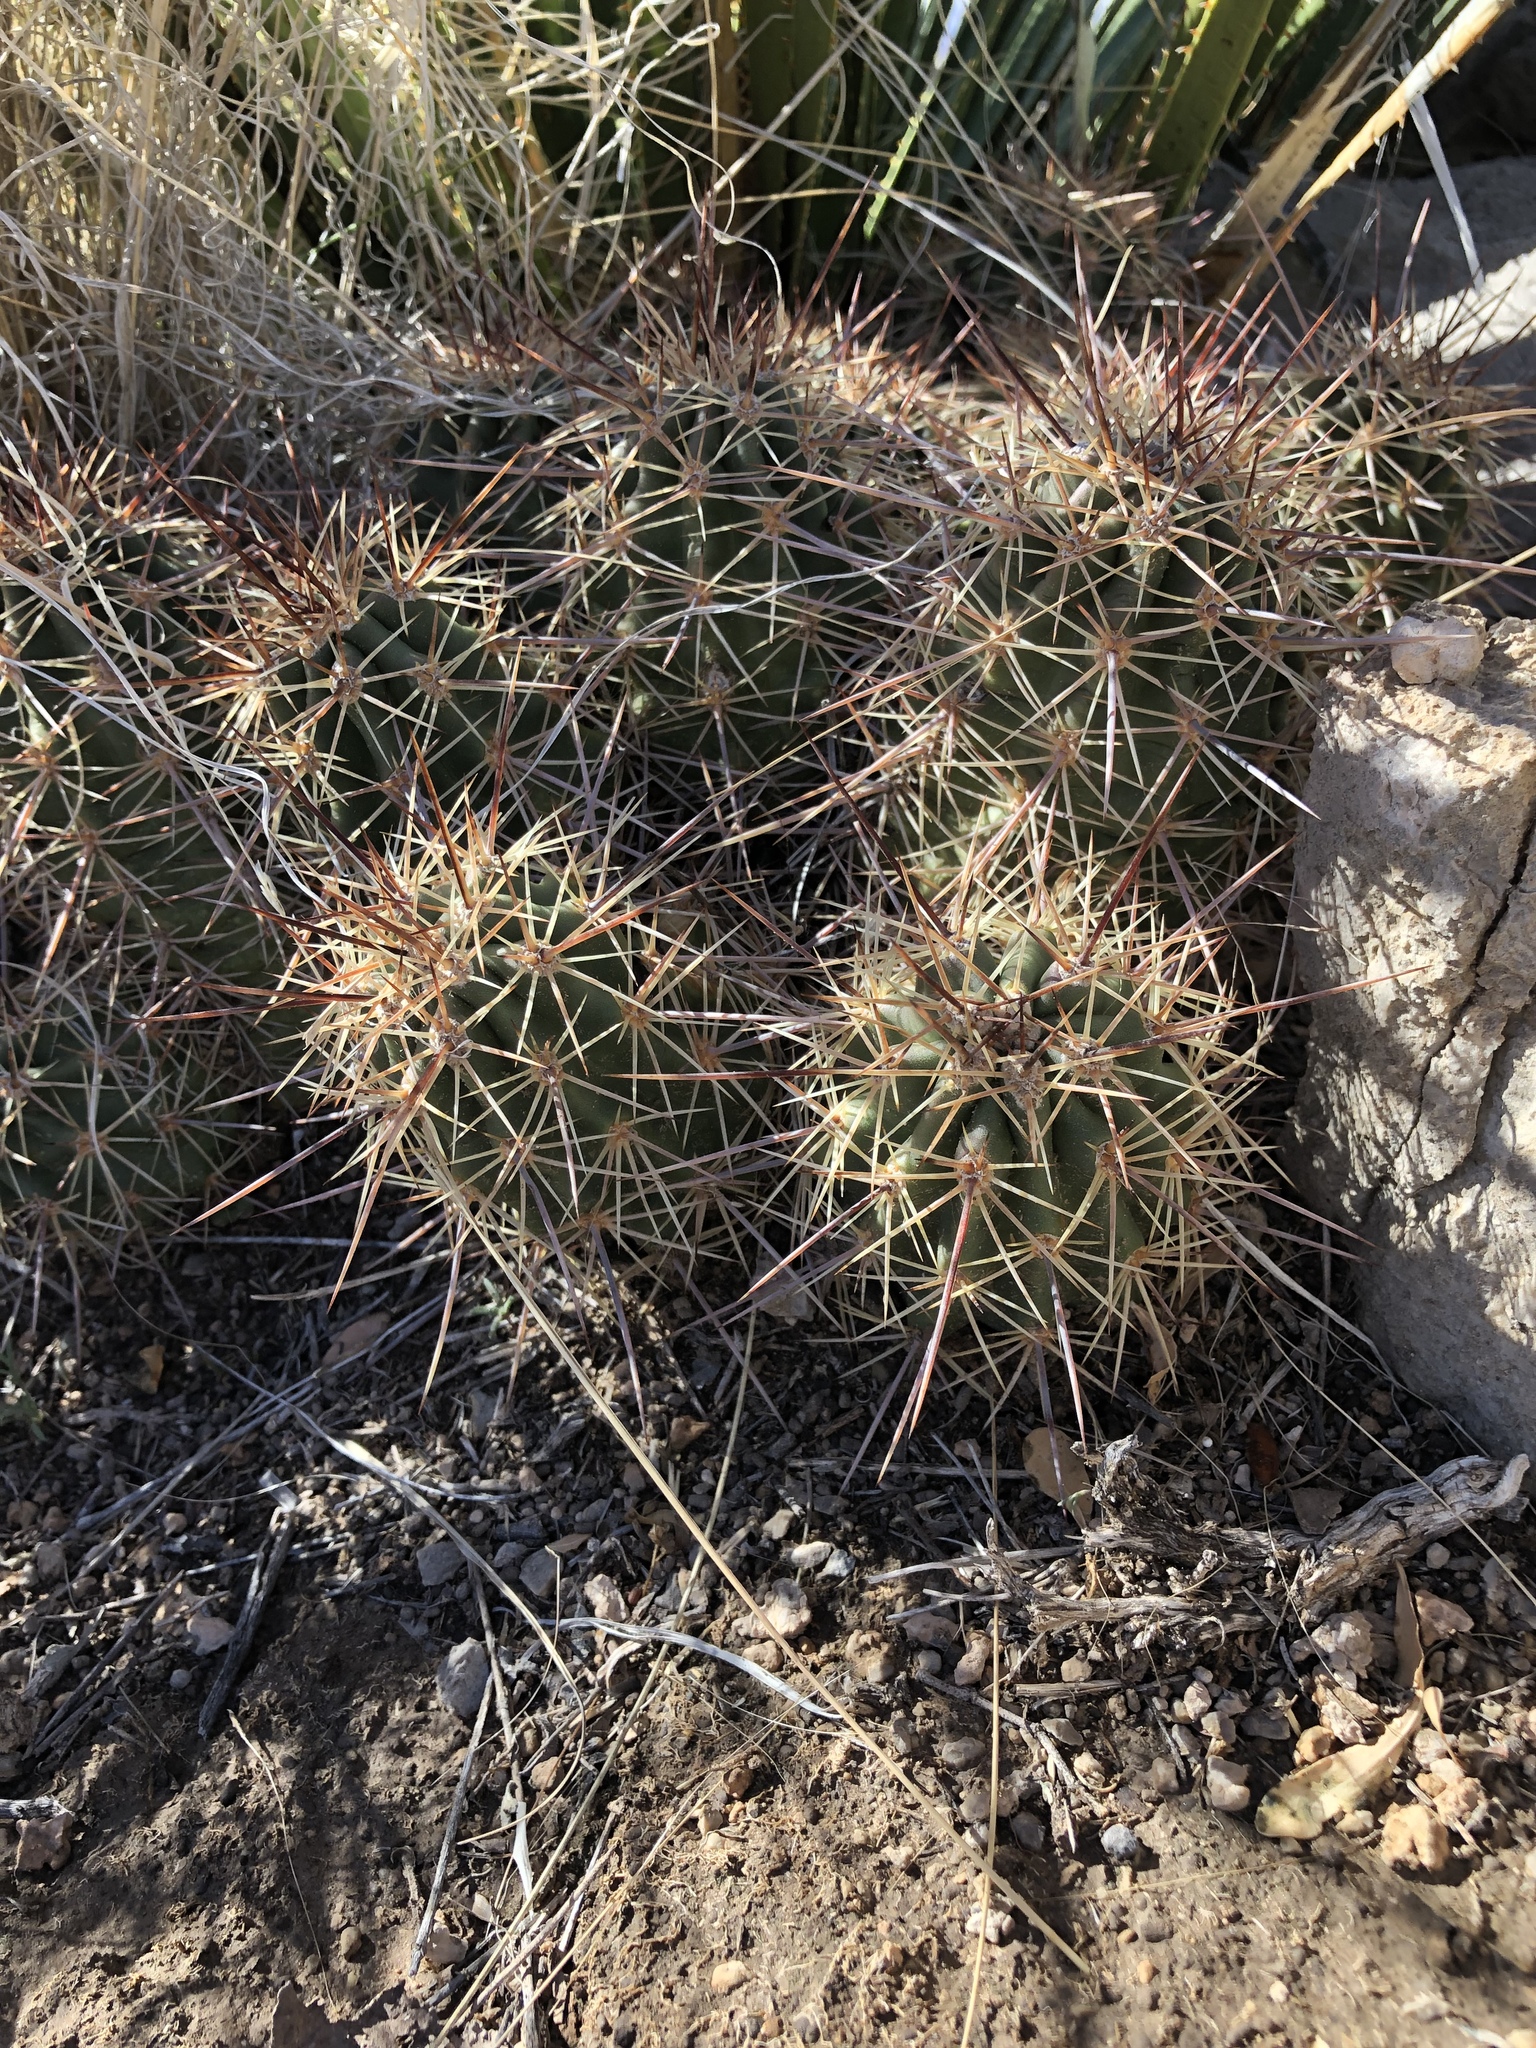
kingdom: Plantae
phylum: Tracheophyta
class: Magnoliopsida
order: Caryophyllales
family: Cactaceae
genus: Echinocereus
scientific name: Echinocereus coccineus
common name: Scarlet hedgehog cactus
